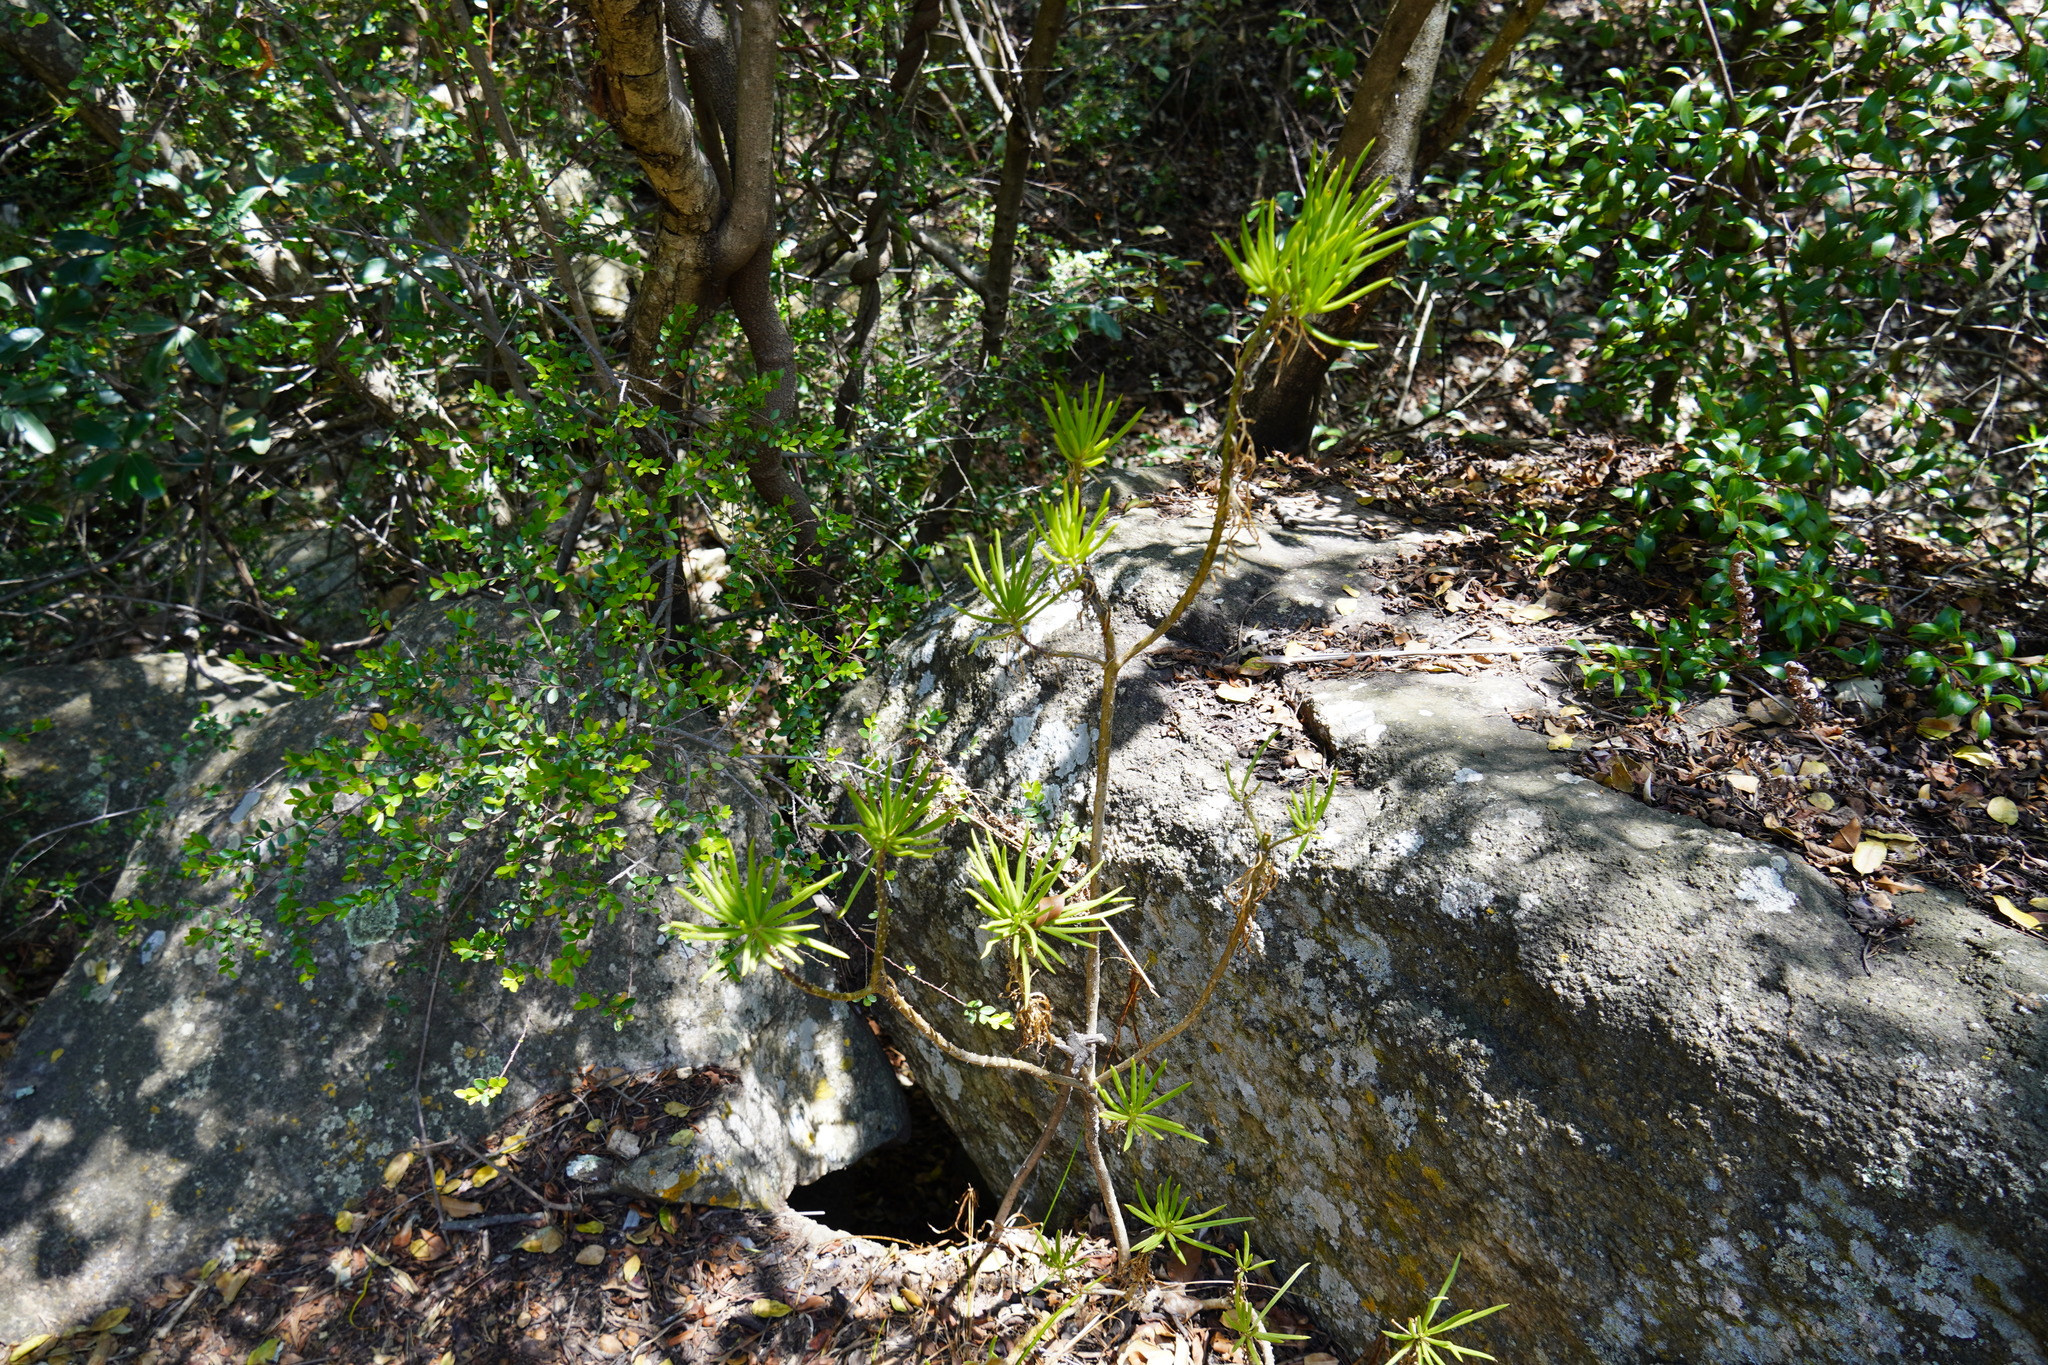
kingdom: Plantae
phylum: Tracheophyta
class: Magnoliopsida
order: Asterales
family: Asteraceae
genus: Kleinia
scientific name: Kleinia barbertonica
